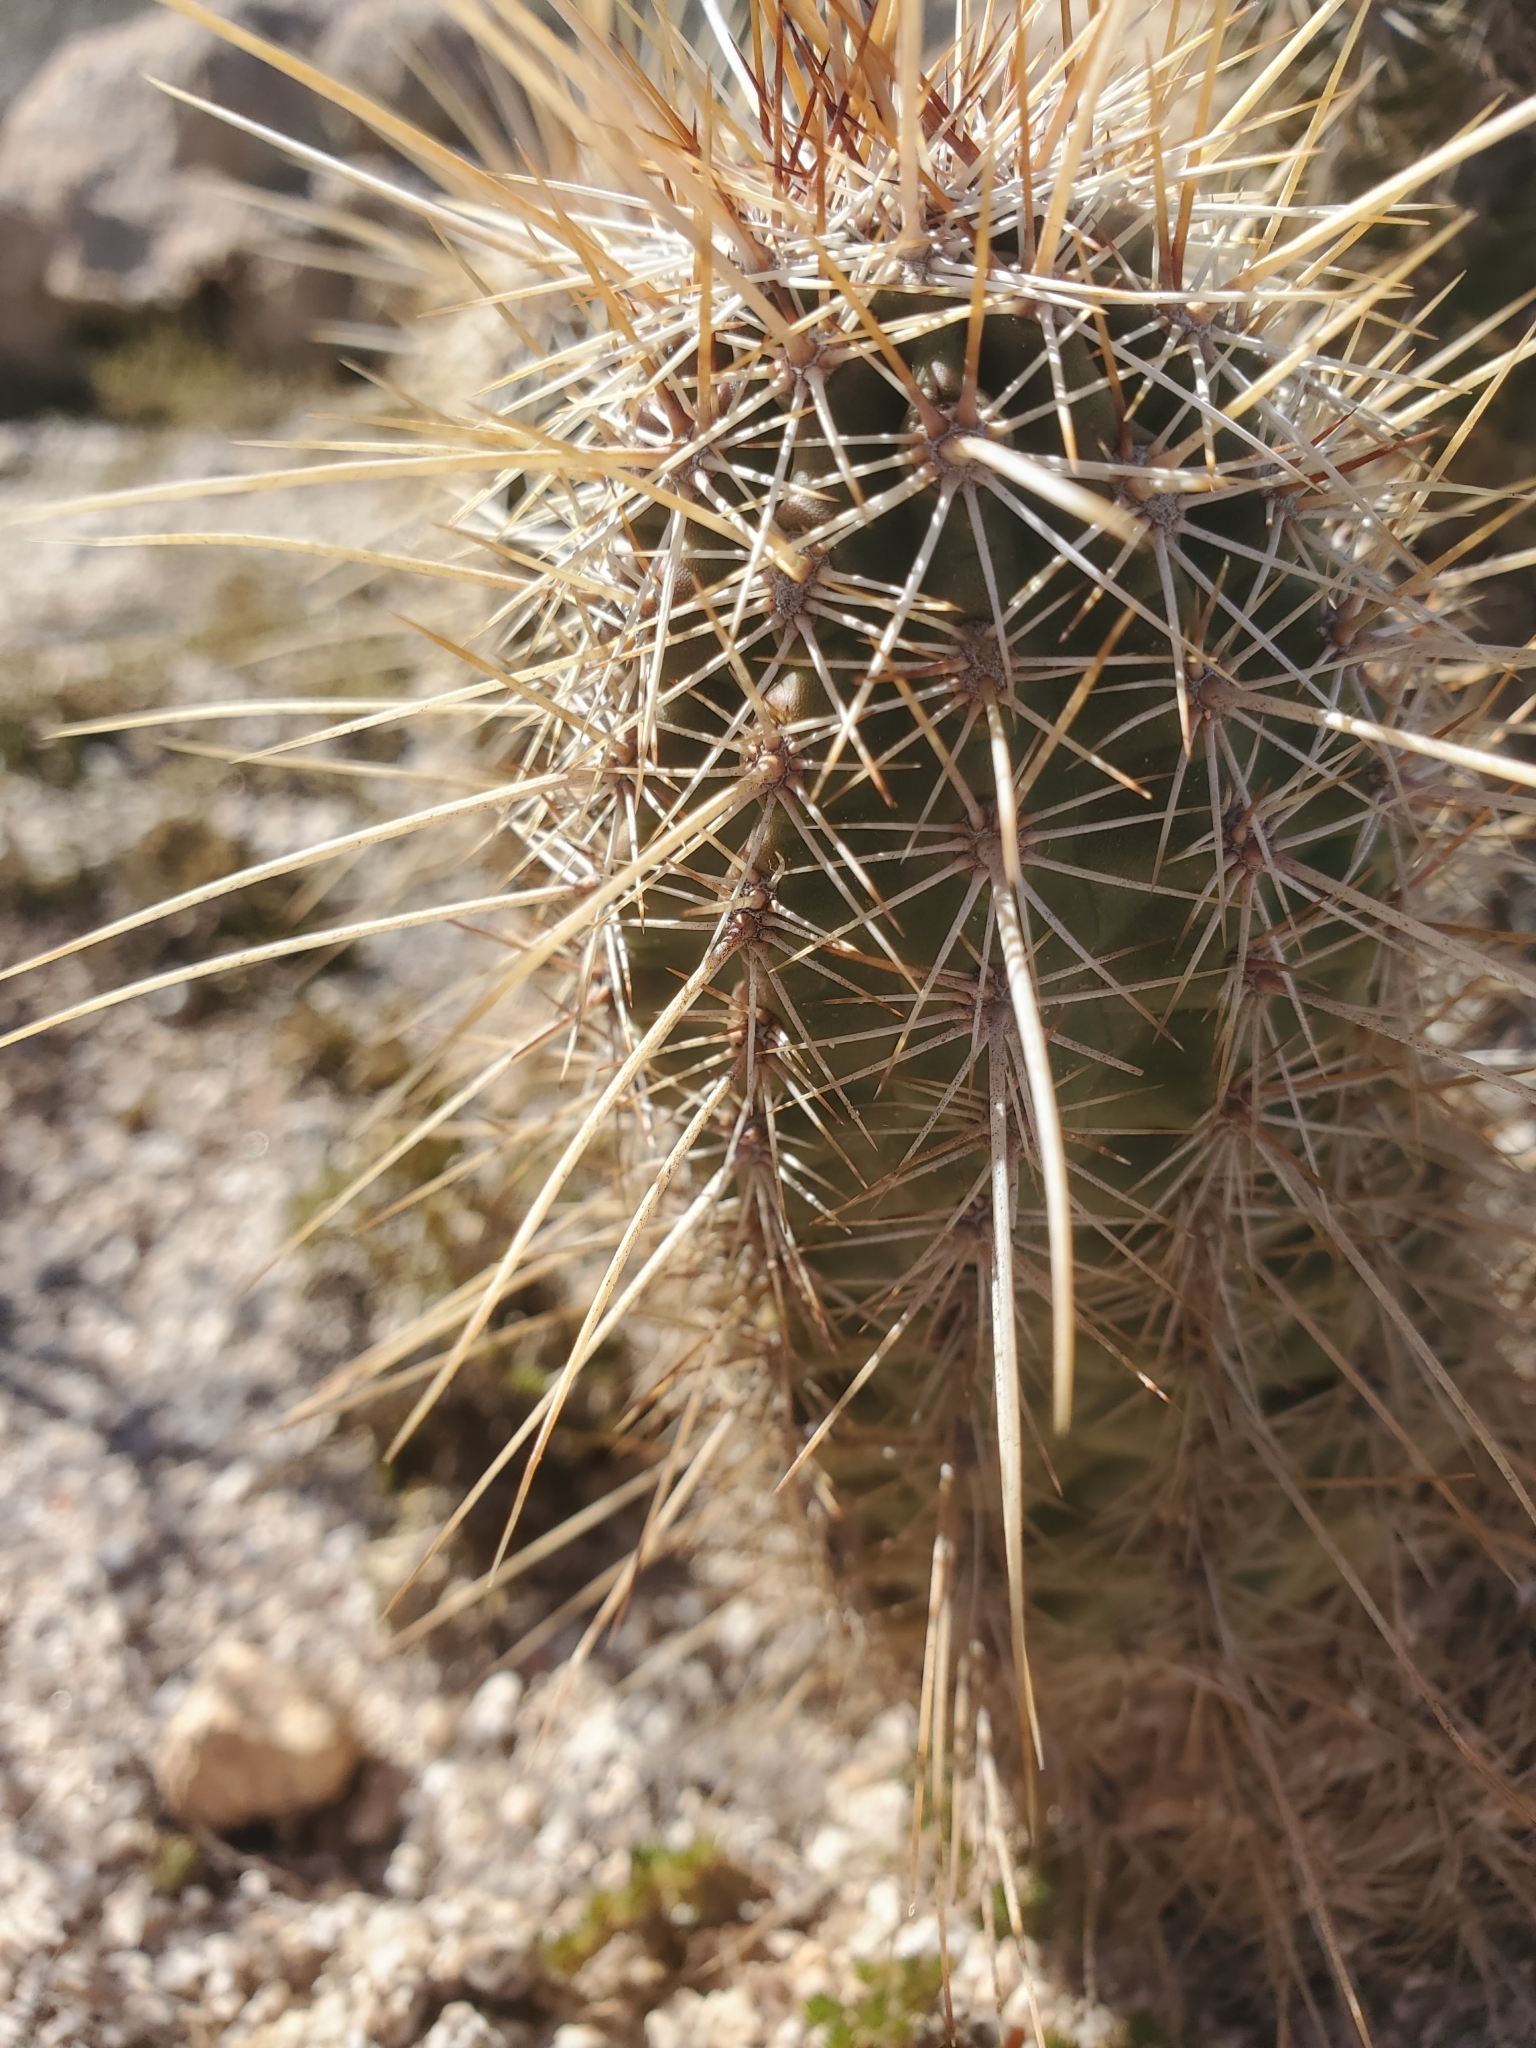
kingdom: Plantae
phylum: Tracheophyta
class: Magnoliopsida
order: Caryophyllales
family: Cactaceae
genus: Echinocereus
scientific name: Echinocereus engelmannii
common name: Engelmann's hedgehog cactus
